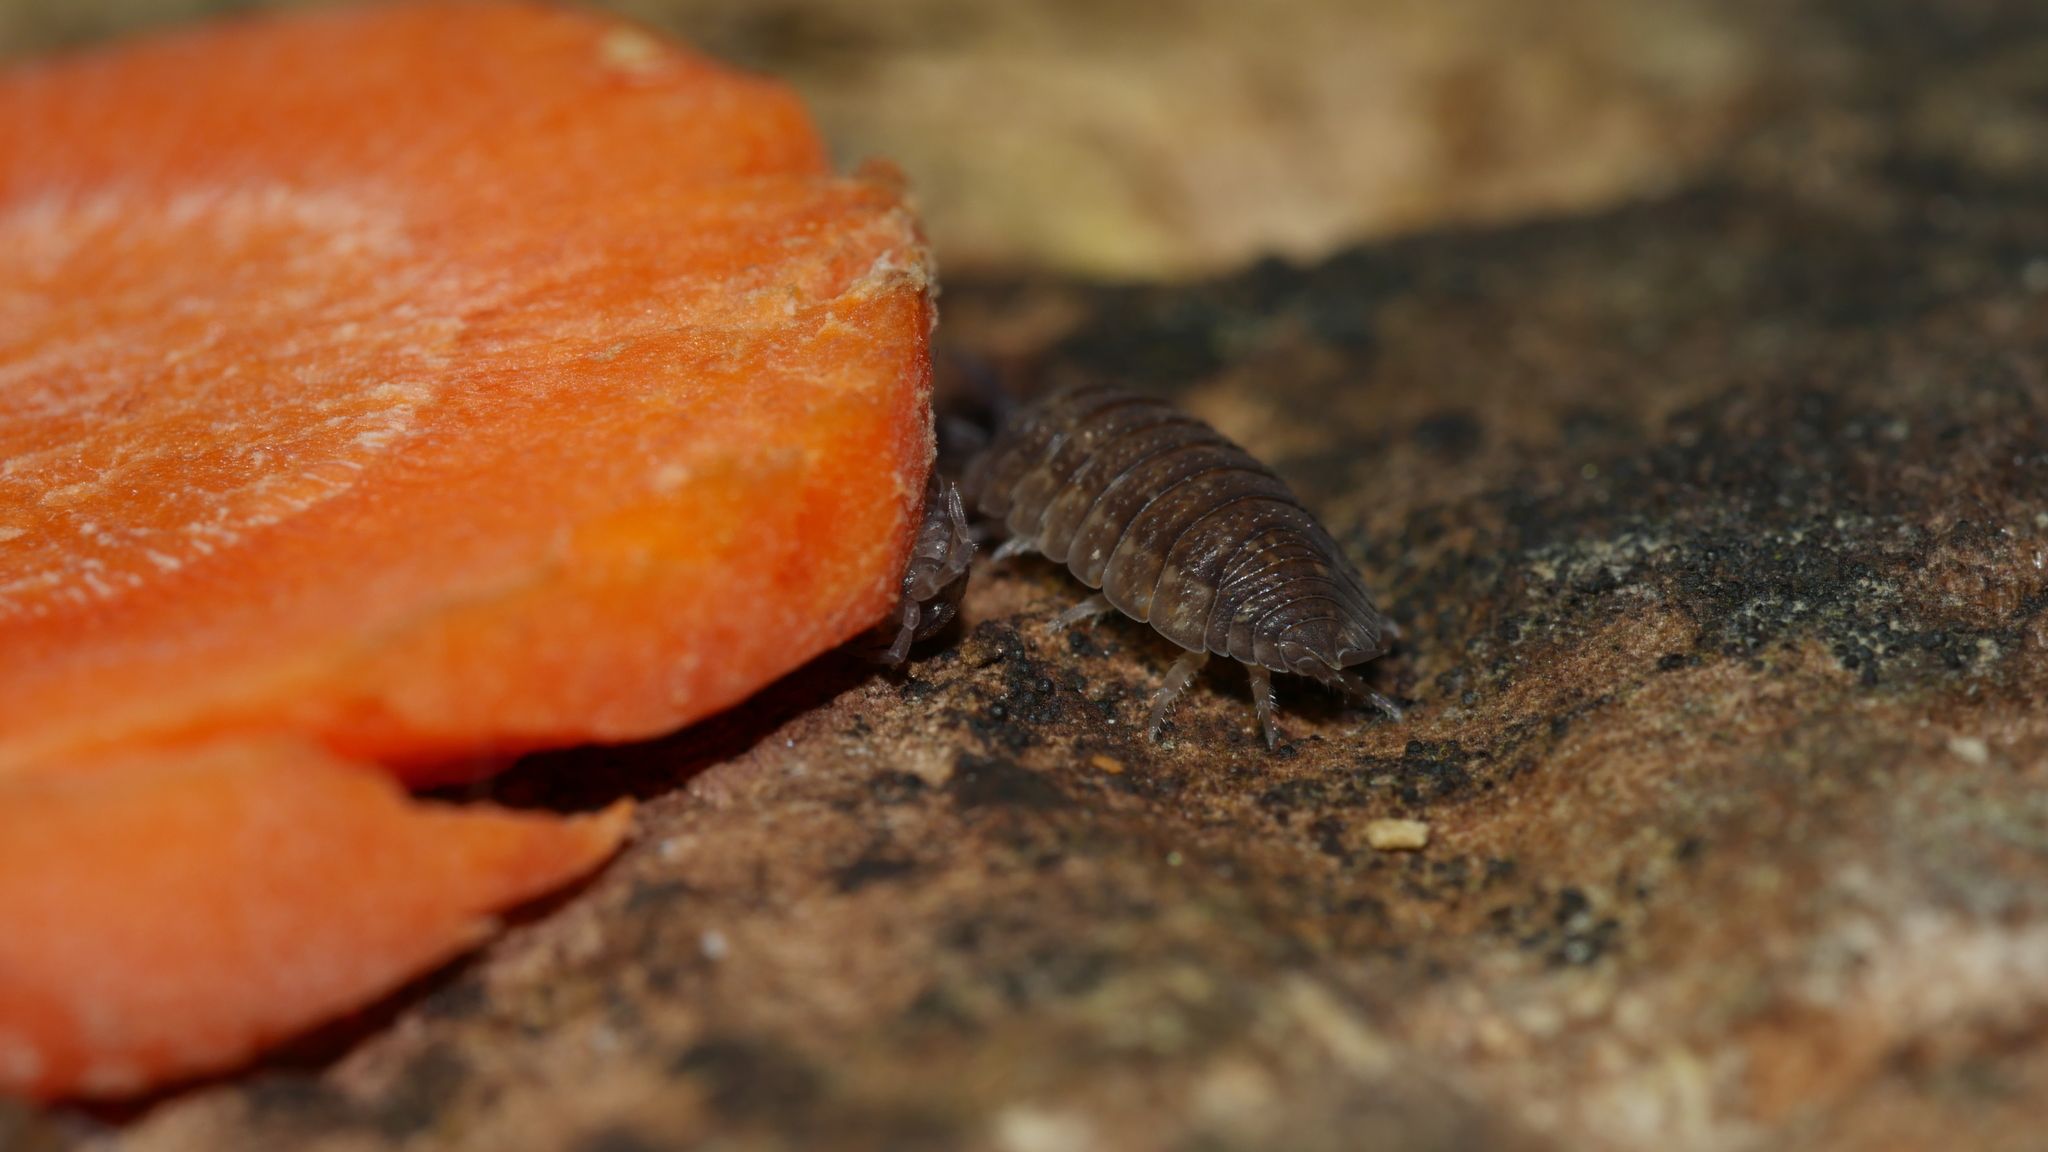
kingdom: Animalia
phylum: Arthropoda
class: Malacostraca
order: Isopoda
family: Porcellionidae
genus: Porcellio
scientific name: Porcellio scaber
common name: Common rough woodlouse
